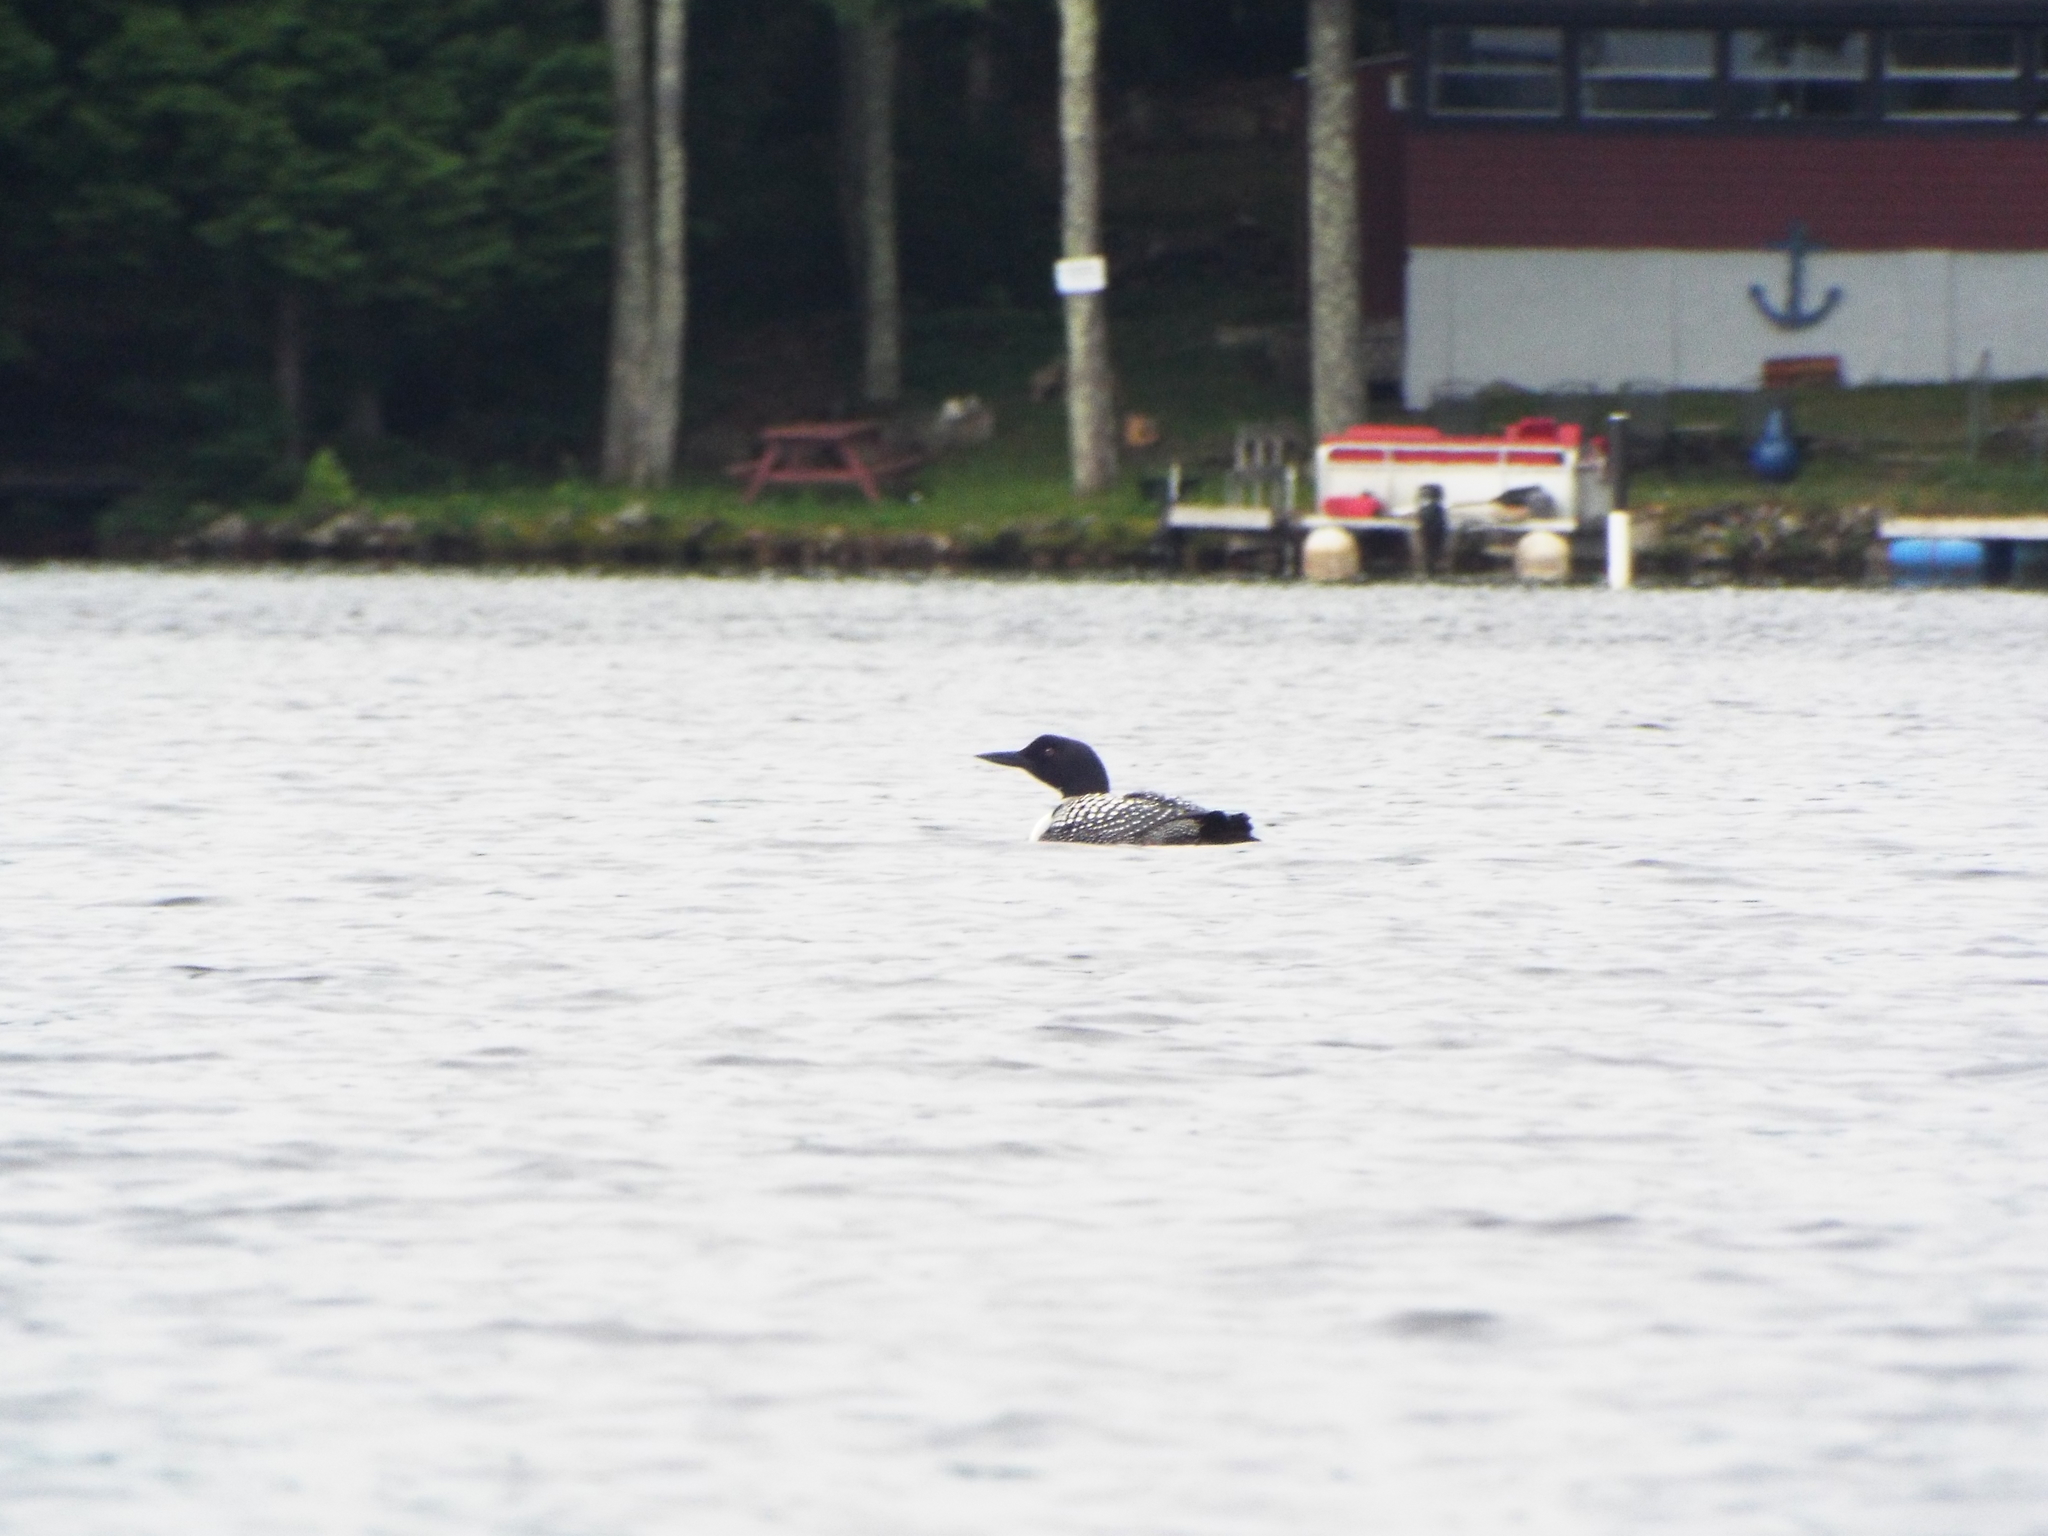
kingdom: Animalia
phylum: Chordata
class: Aves
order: Gaviiformes
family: Gaviidae
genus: Gavia
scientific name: Gavia immer
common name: Common loon
